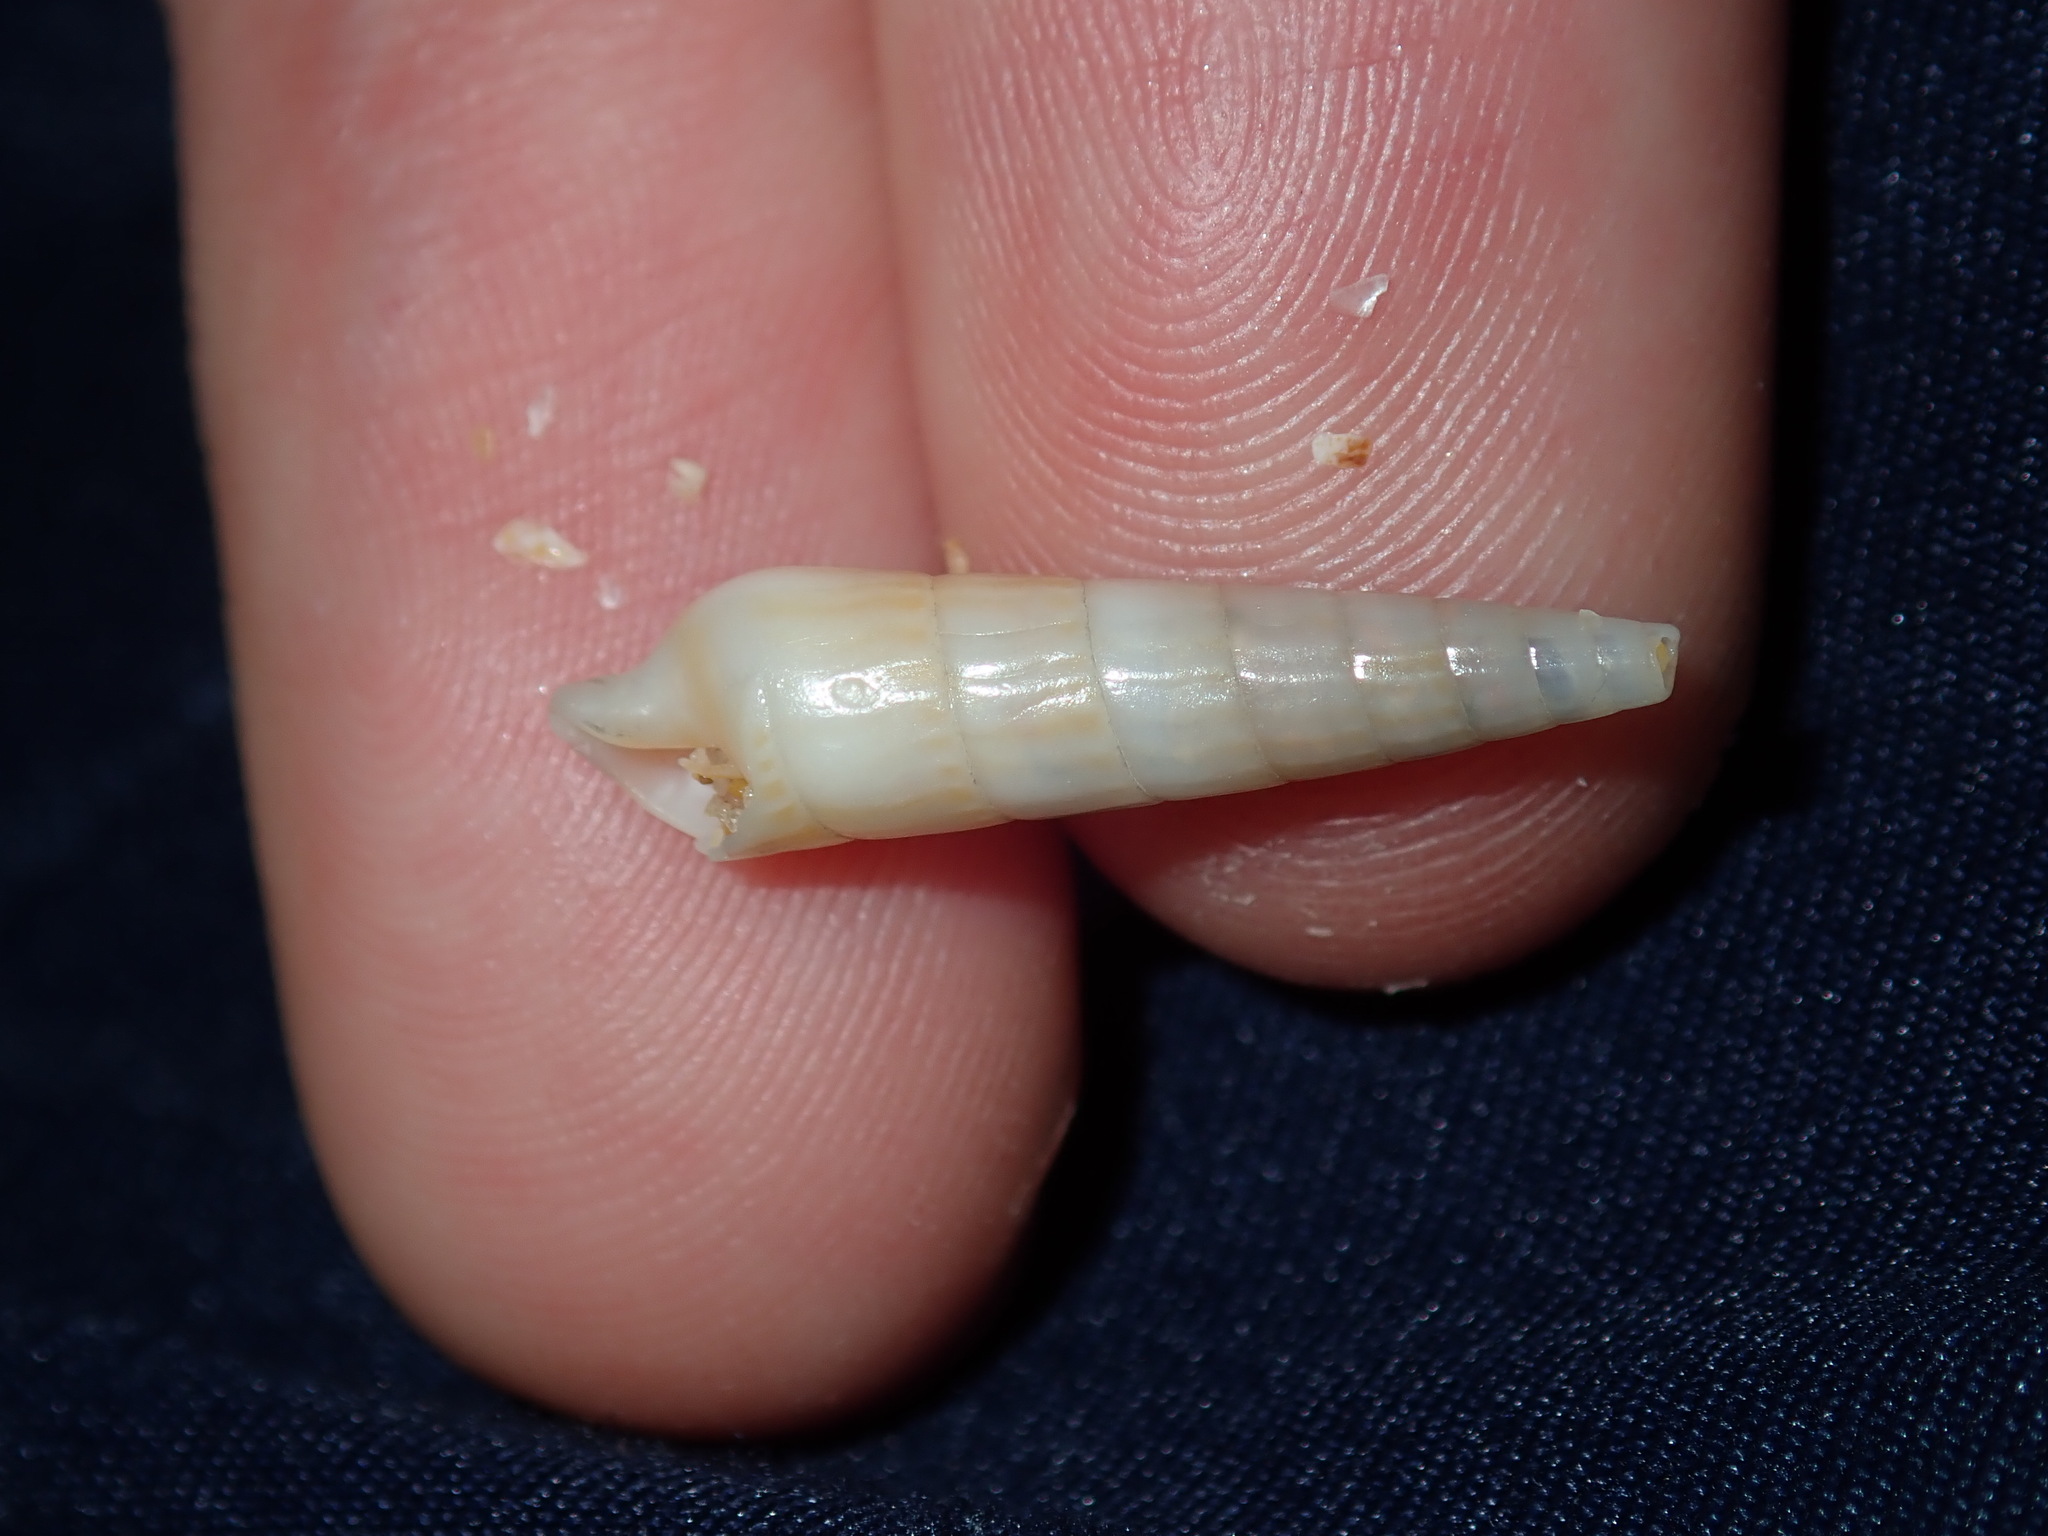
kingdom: Animalia
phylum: Mollusca
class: Gastropoda
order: Neogastropoda
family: Terebridae
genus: Profunditerebra
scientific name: Profunditerebra brazieri
